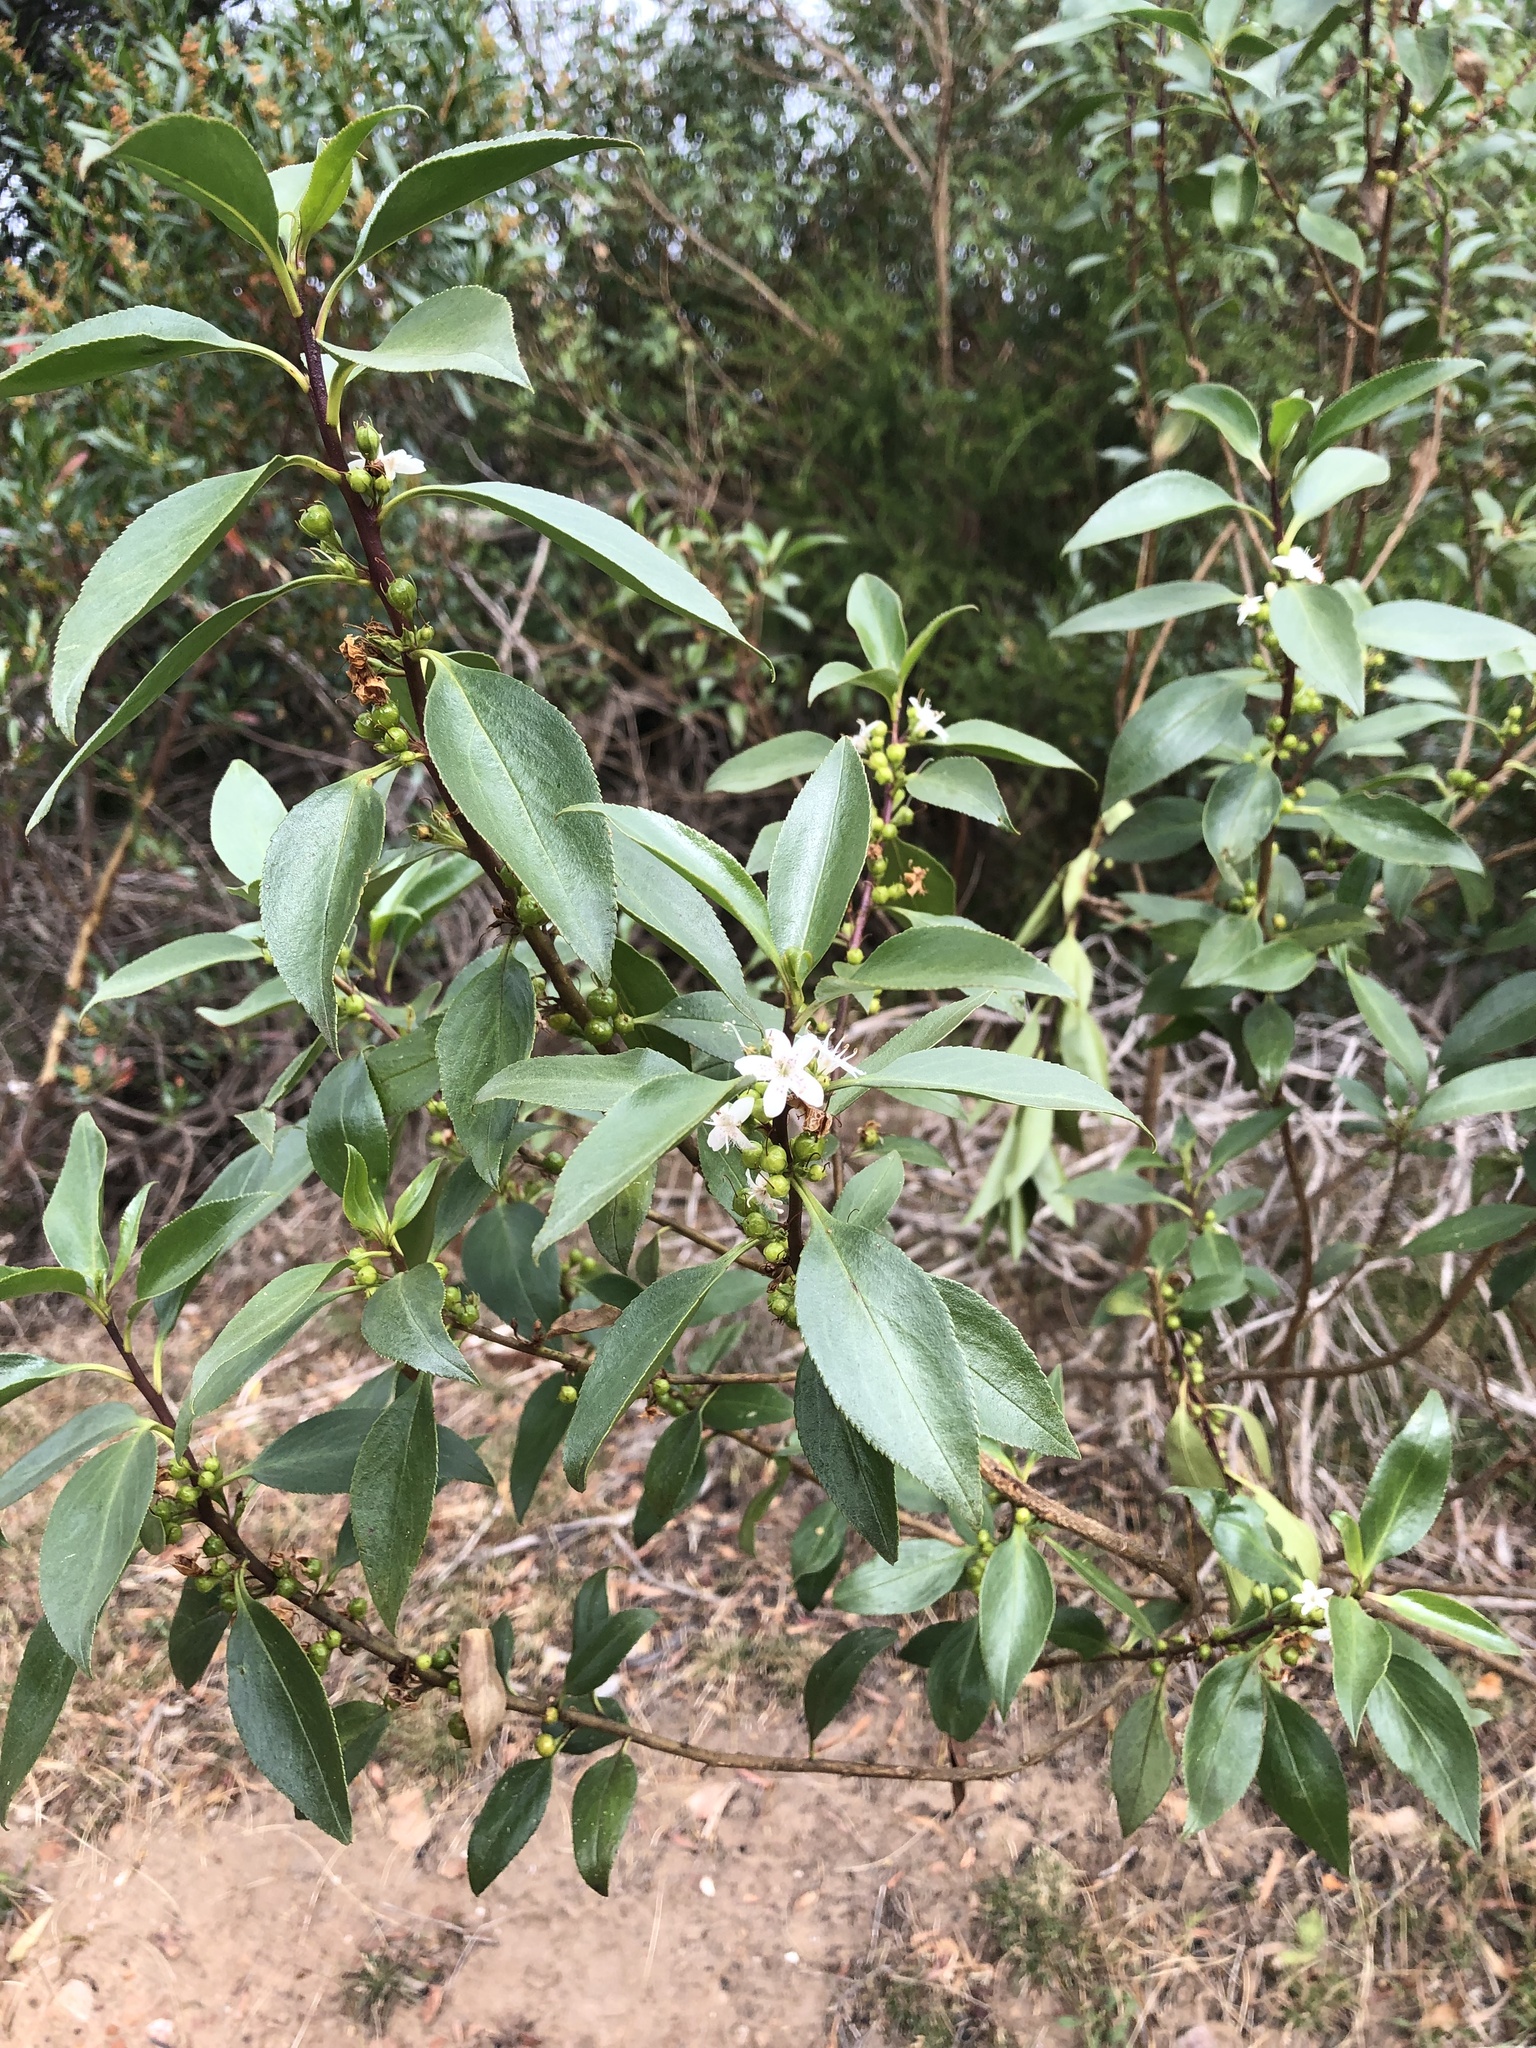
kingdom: Plantae
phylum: Tracheophyta
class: Magnoliopsida
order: Lamiales
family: Scrophulariaceae
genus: Myoporum
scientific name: Myoporum petiolatum
